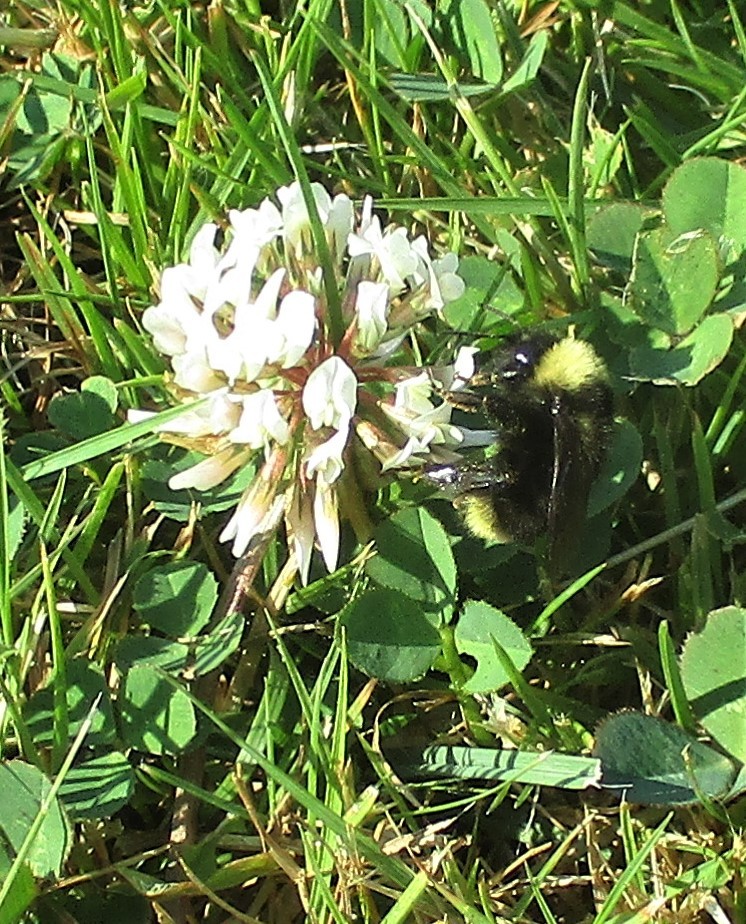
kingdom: Animalia
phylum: Arthropoda
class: Insecta
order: Hymenoptera
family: Apidae
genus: Bombus
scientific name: Bombus californicus
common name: California bumble bee
